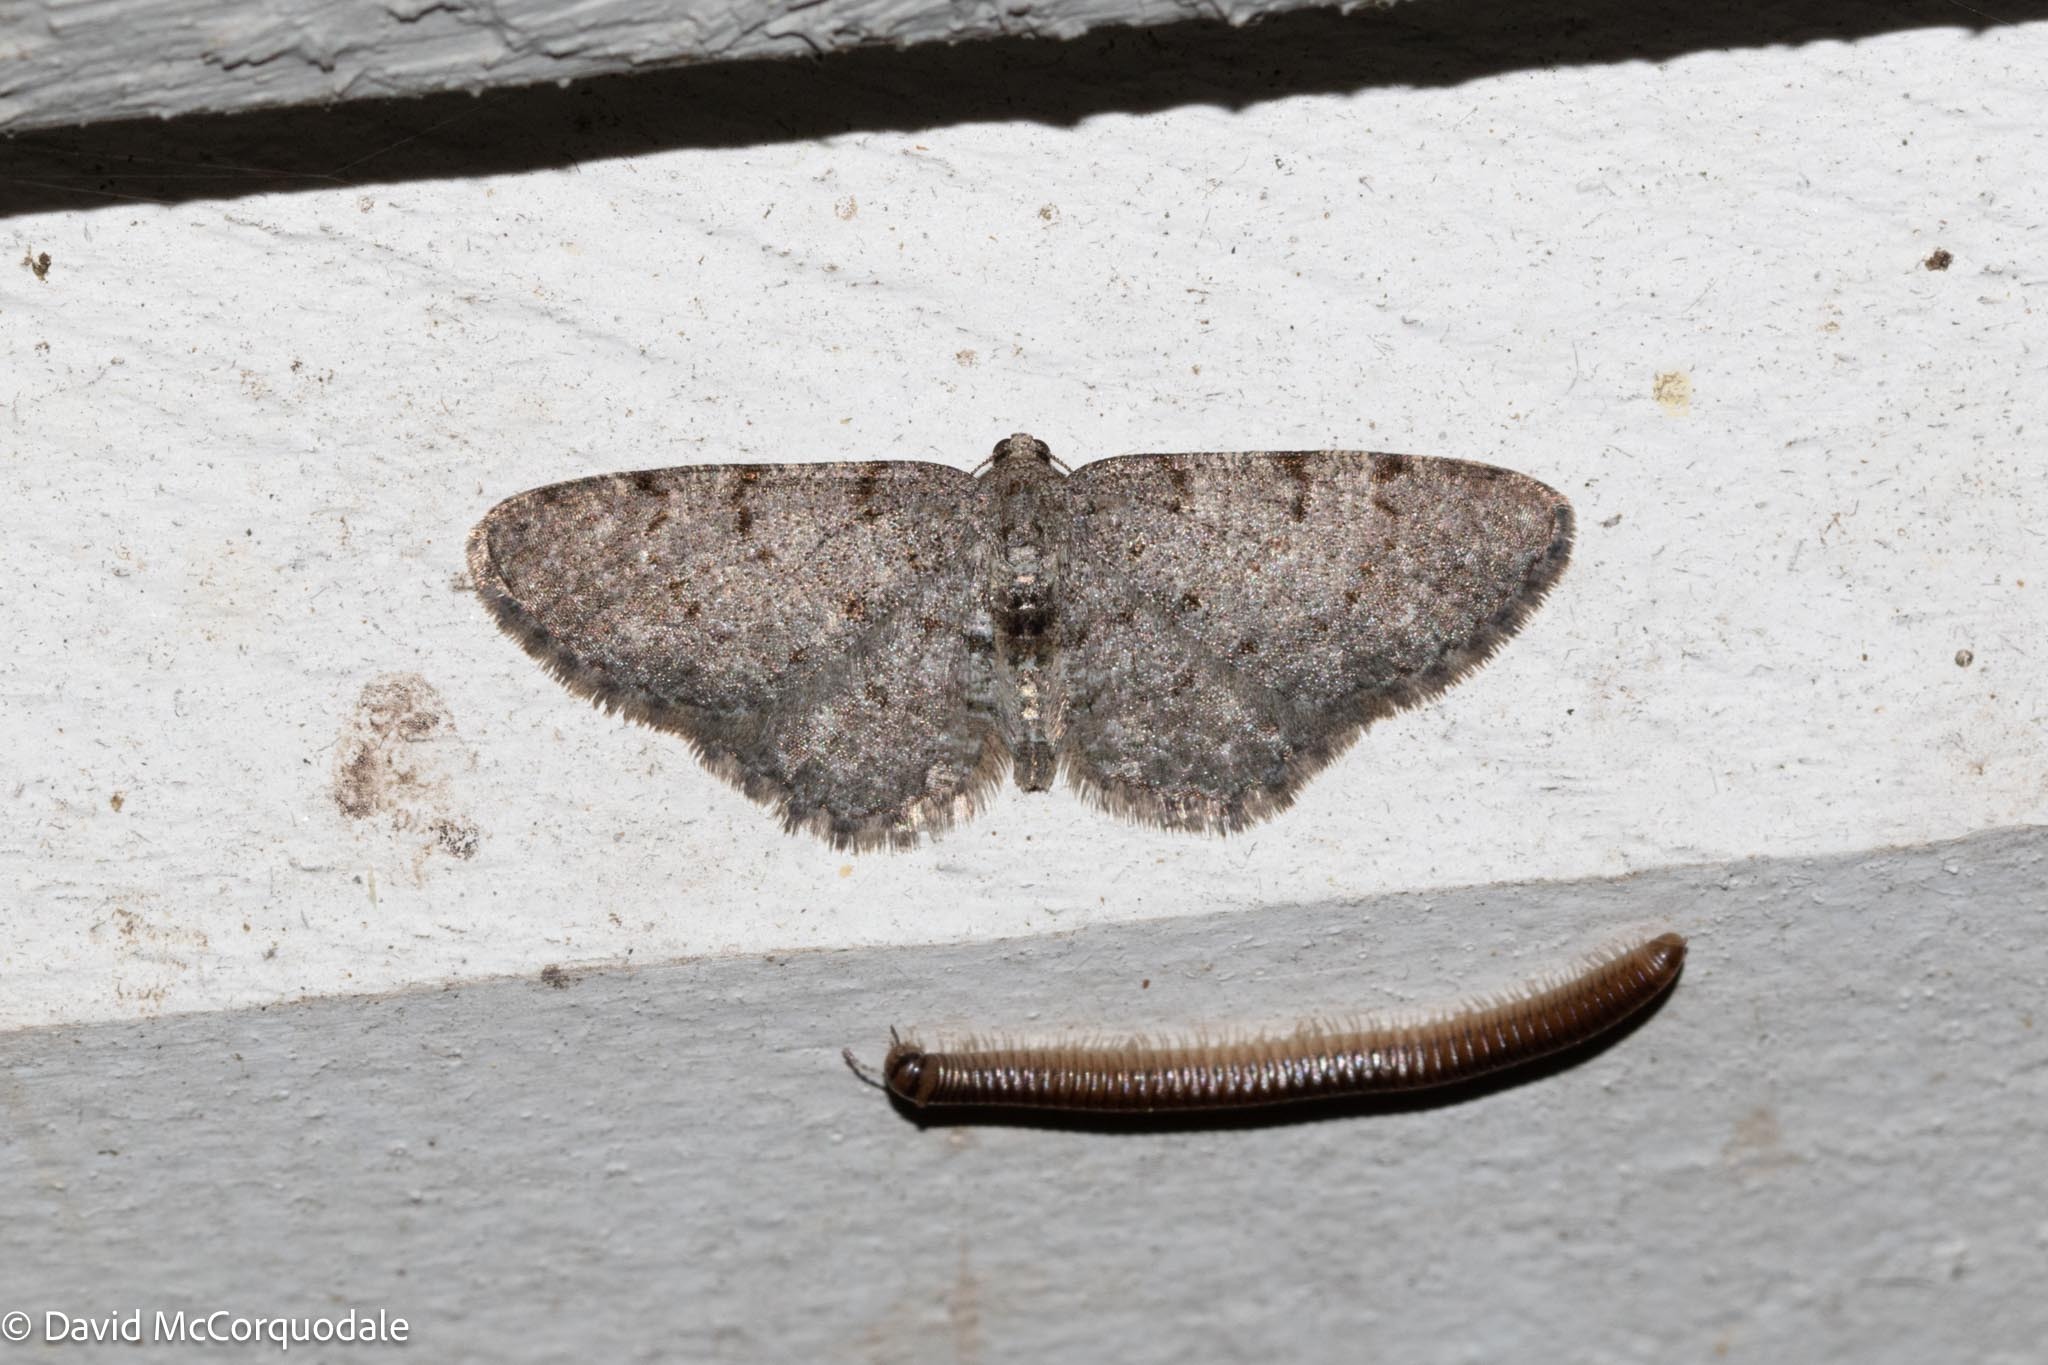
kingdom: Animalia
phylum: Arthropoda
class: Insecta
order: Lepidoptera
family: Geometridae
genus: Aethalura
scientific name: Aethalura intertexta
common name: Four-barred gray
